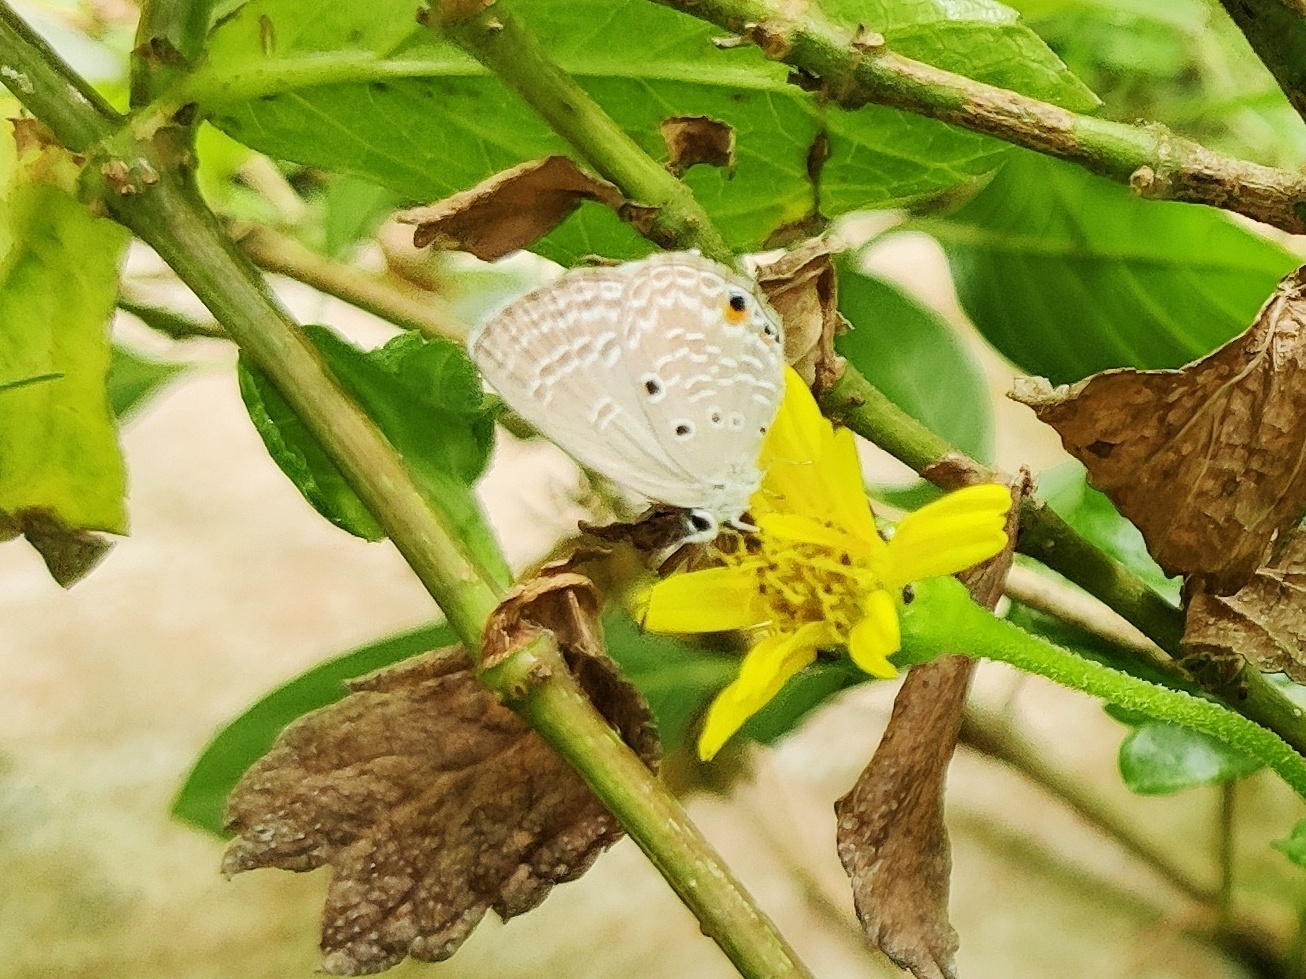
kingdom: Animalia
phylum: Arthropoda
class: Insecta
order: Lepidoptera
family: Lycaenidae
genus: Luthrodes
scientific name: Luthrodes pandava
